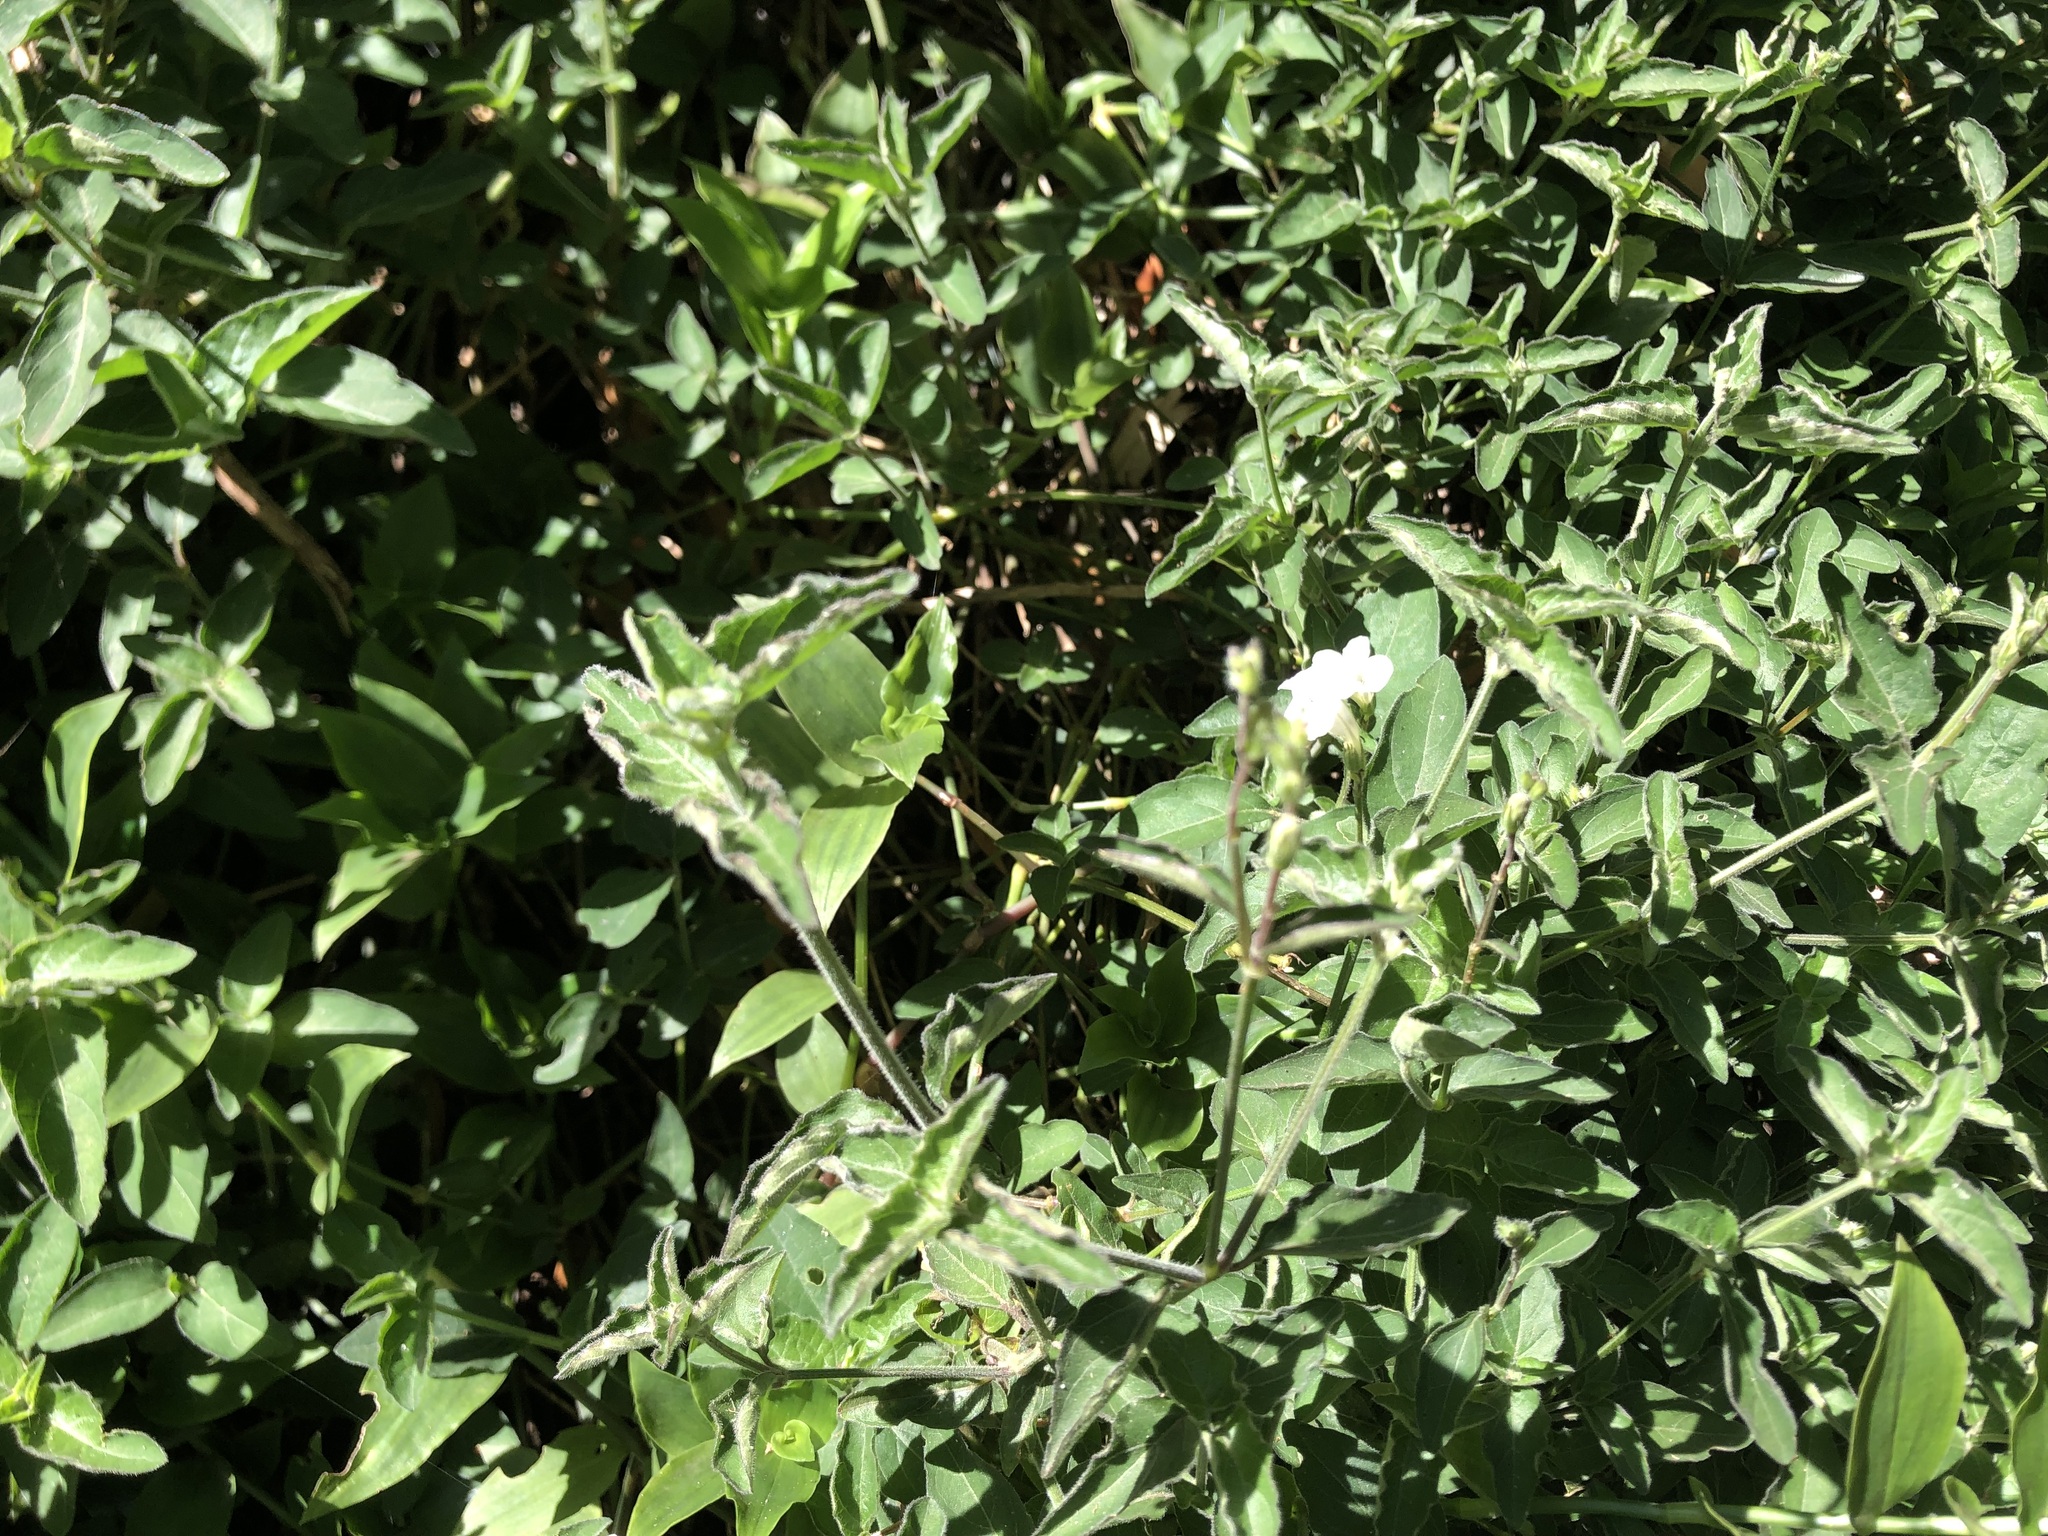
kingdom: Plantae
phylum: Tracheophyta
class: Magnoliopsida
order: Lamiales
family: Acanthaceae
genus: Asystasia
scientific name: Asystasia intrusa
